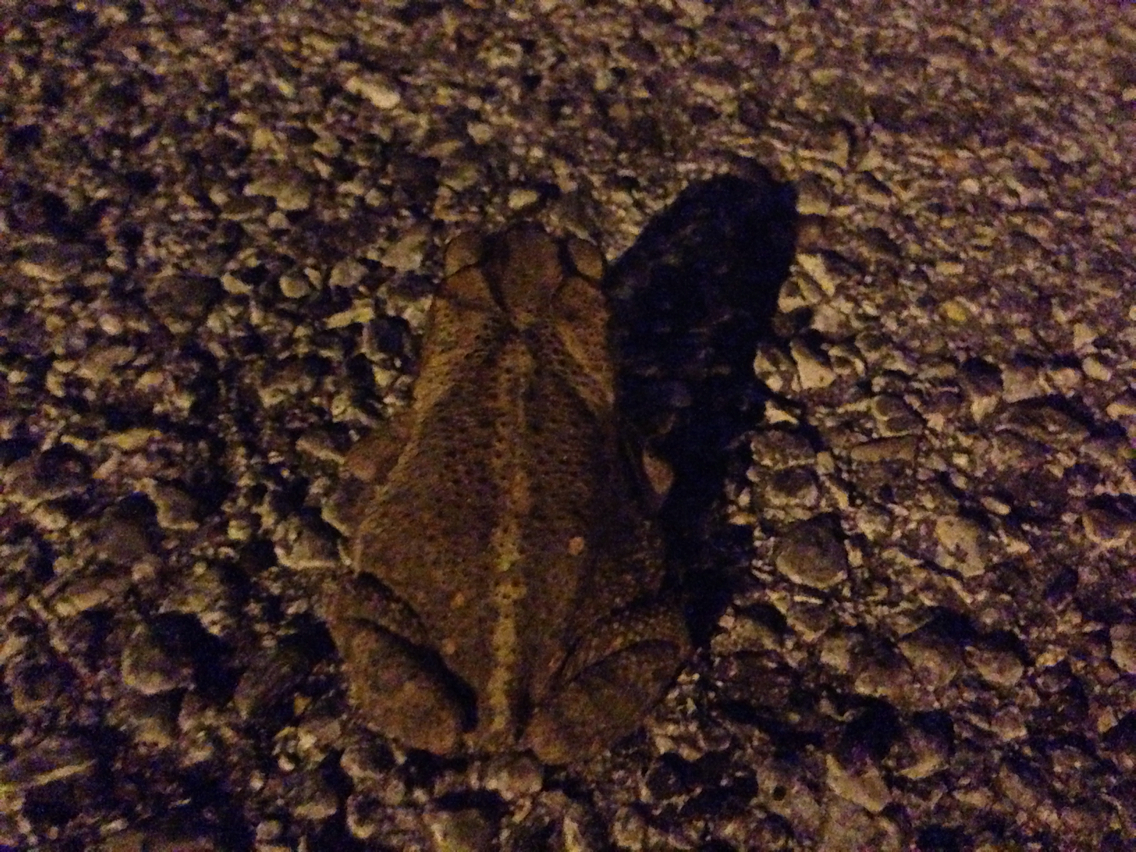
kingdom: Animalia
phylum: Chordata
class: Amphibia
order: Anura
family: Bufonidae
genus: Incilius
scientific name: Incilius nebulifer
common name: Gulf coast toad
